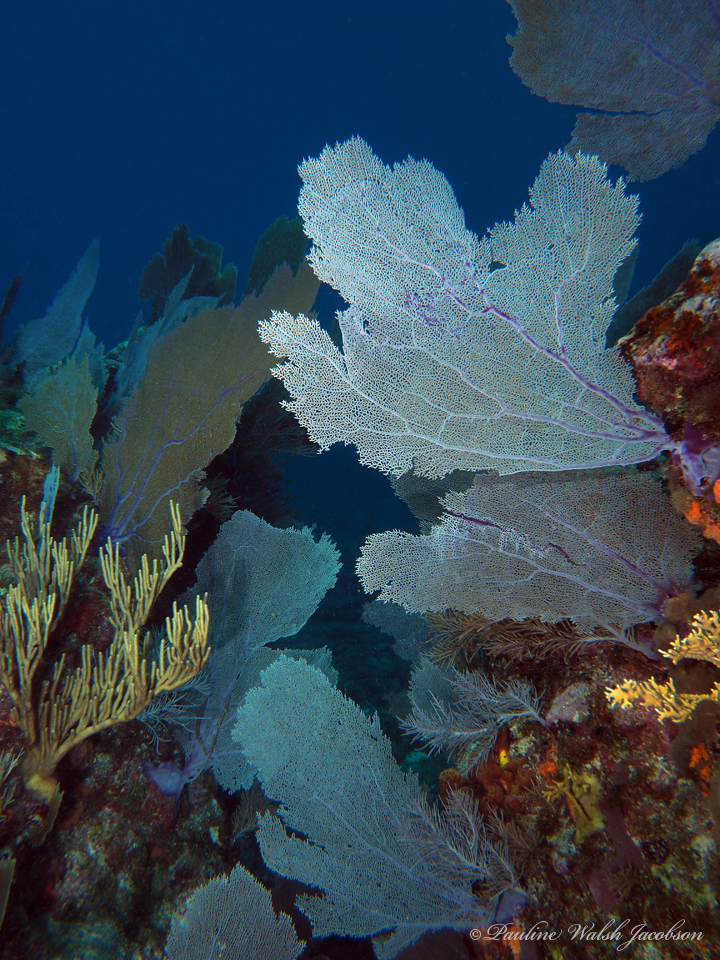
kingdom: Animalia
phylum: Cnidaria
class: Anthozoa
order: Malacalcyonacea
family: Gorgoniidae
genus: Gorgonia
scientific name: Gorgonia ventalina
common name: Common sea fan
